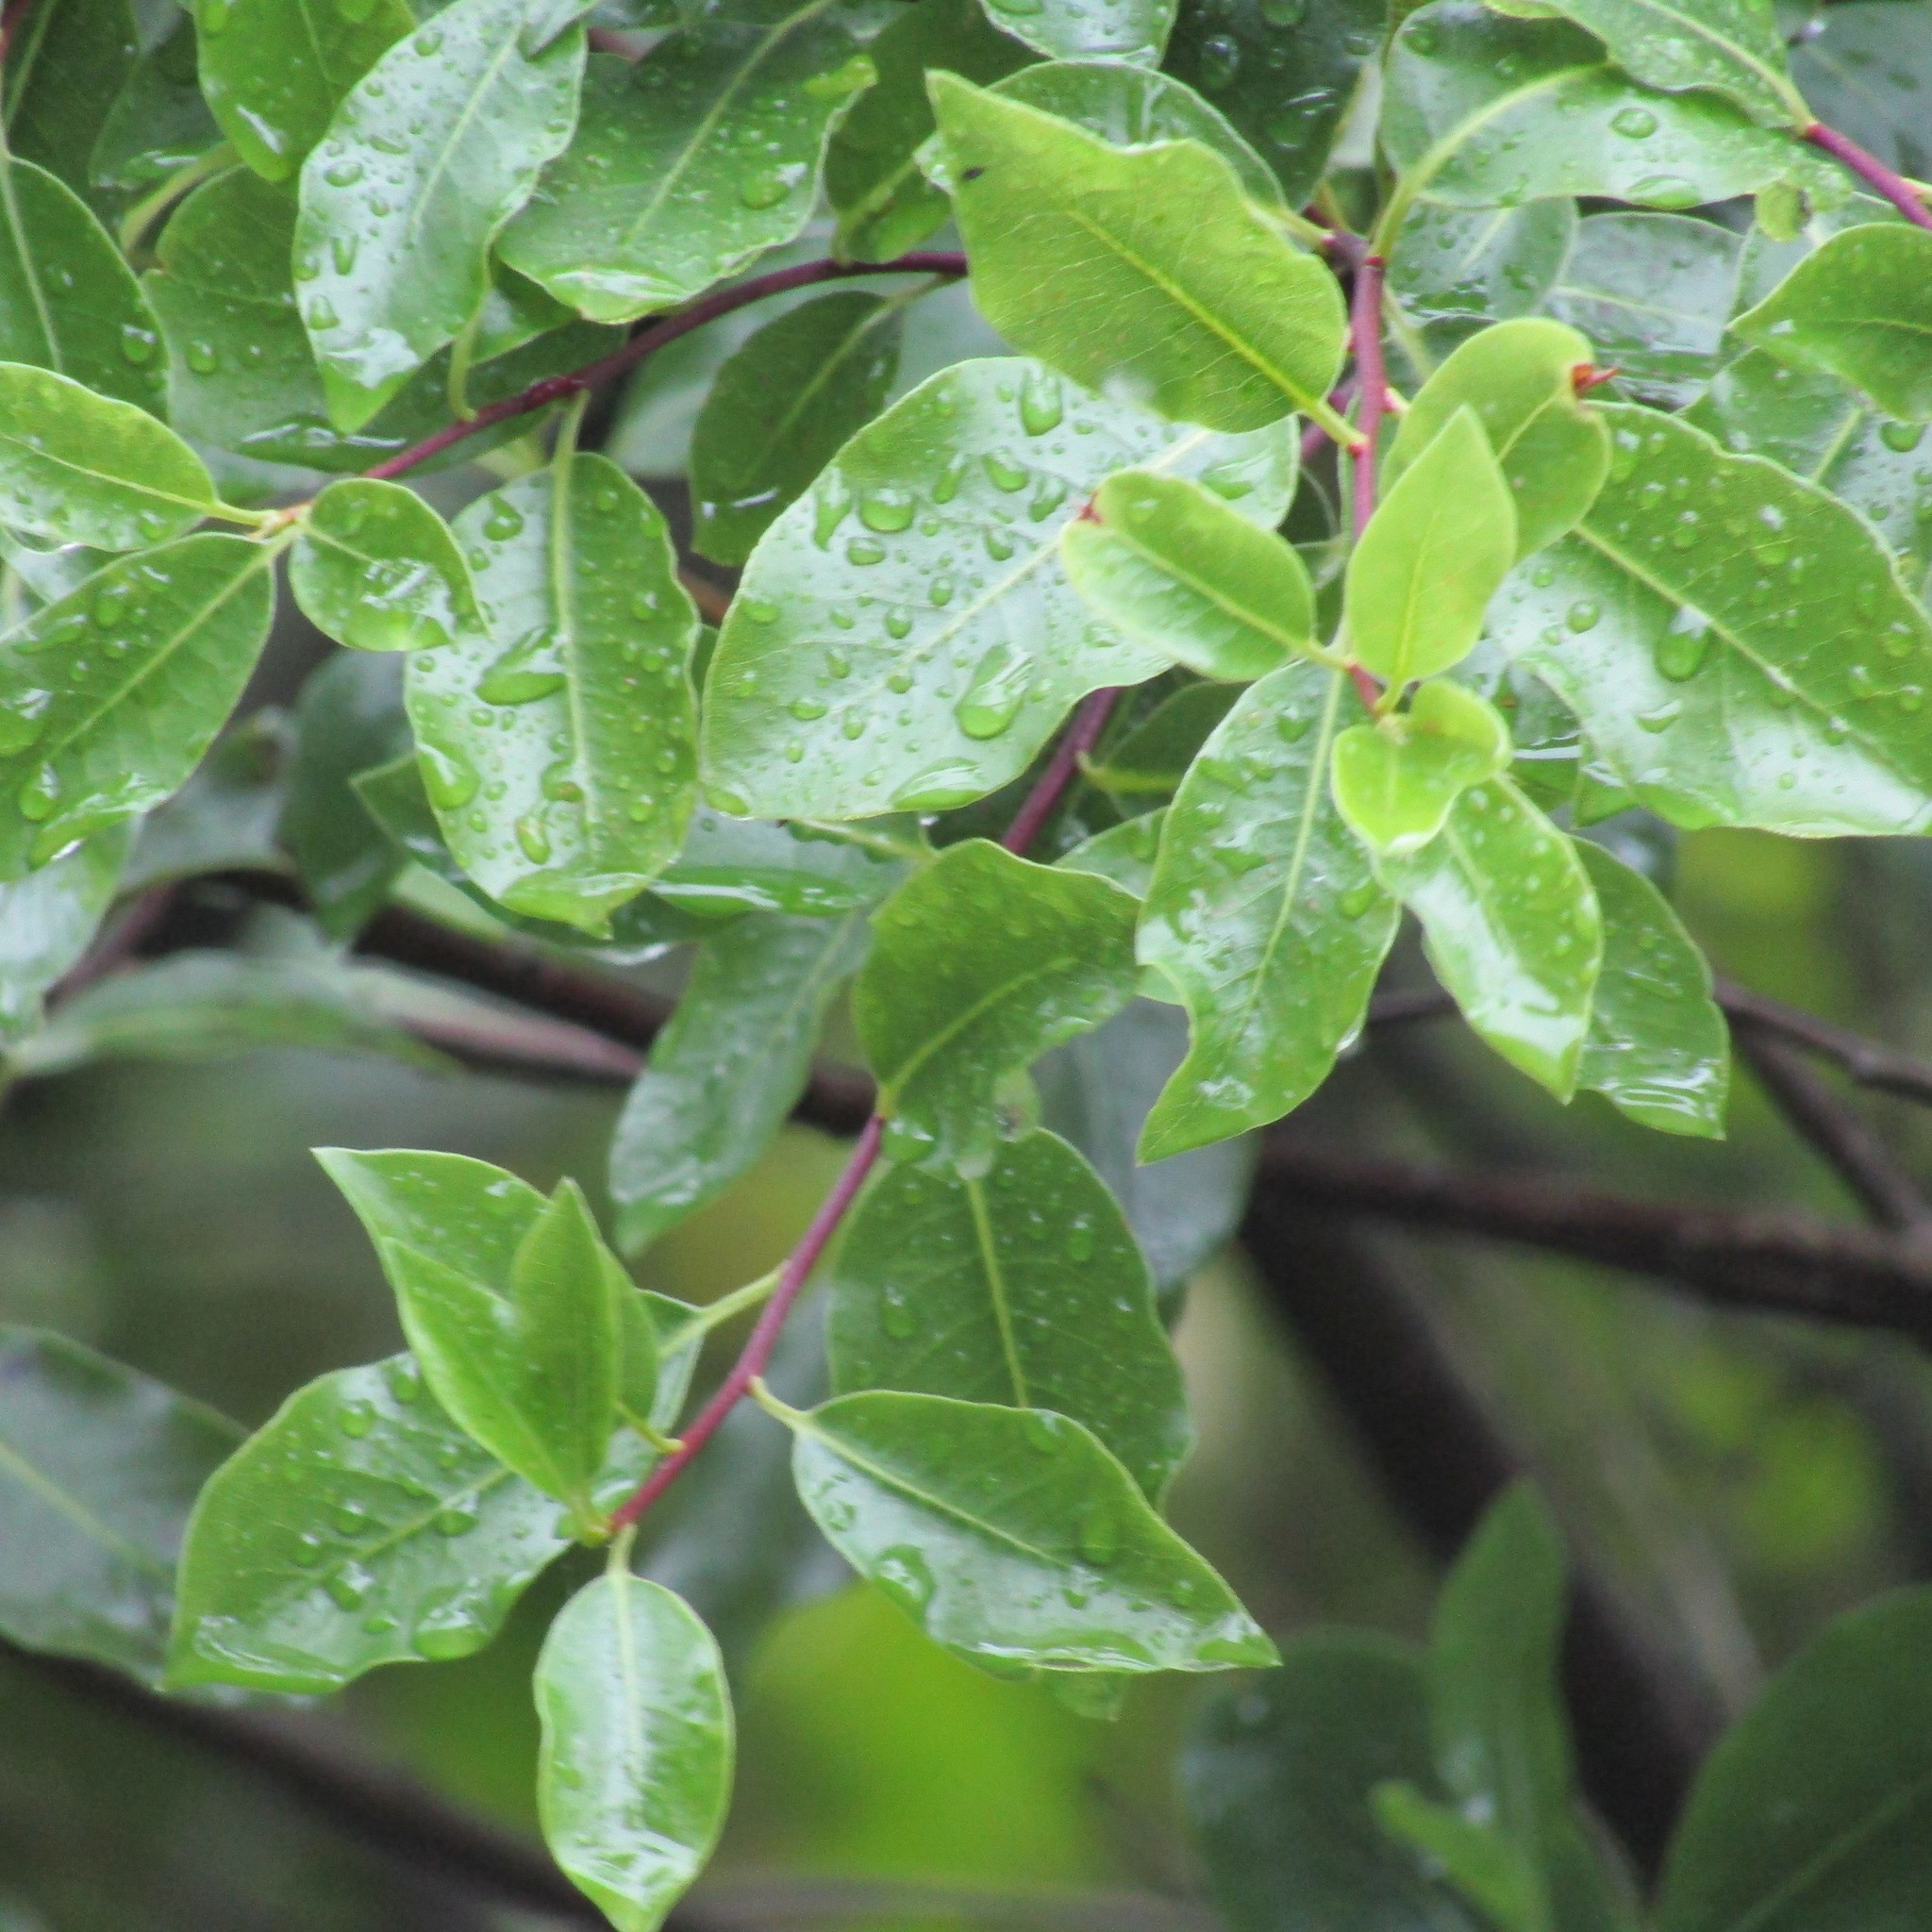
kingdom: Plantae
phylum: Tracheophyta
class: Magnoliopsida
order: Apiales
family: Pittosporaceae
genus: Pittosporum
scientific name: Pittosporum tenuifolium
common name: Kohuhu
